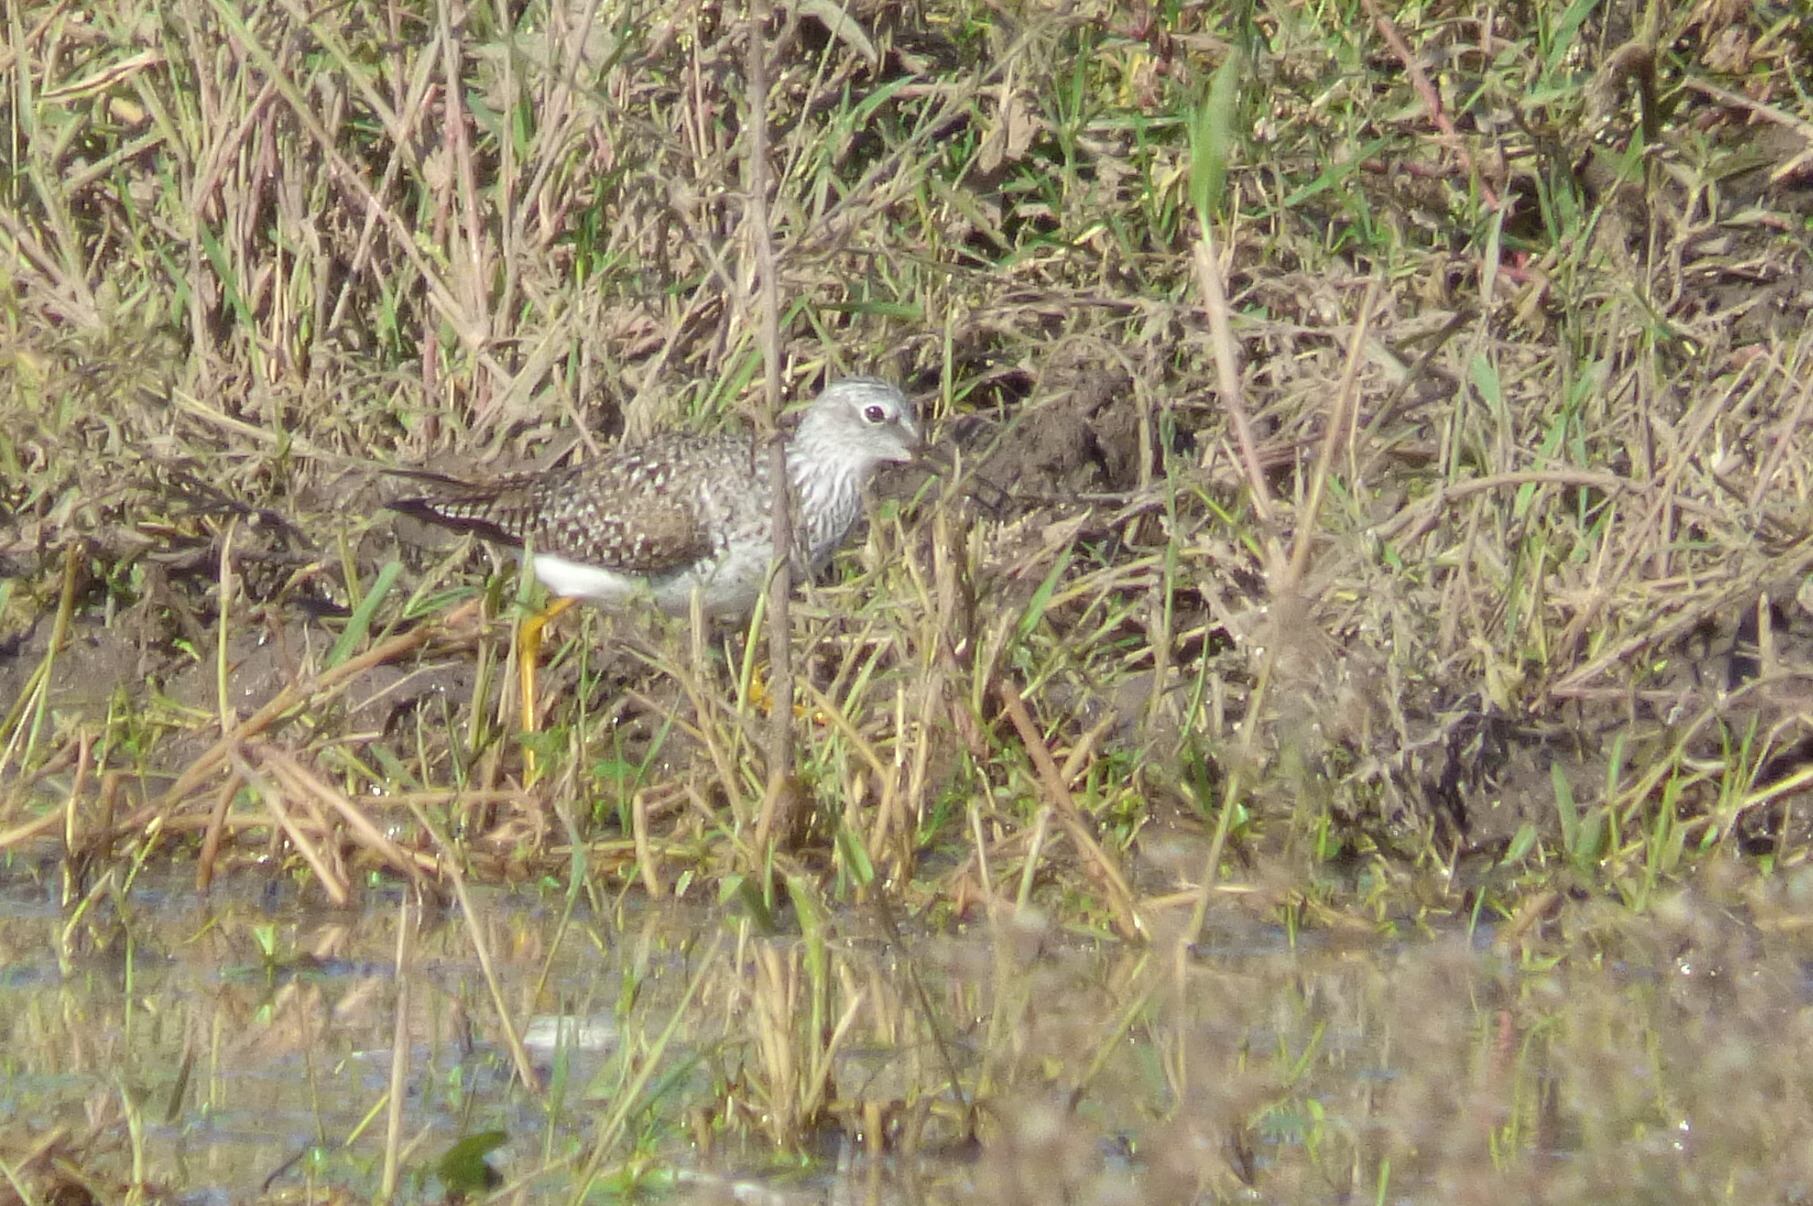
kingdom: Animalia
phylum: Chordata
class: Aves
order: Charadriiformes
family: Scolopacidae
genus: Tringa
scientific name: Tringa flavipes
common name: Lesser yellowlegs
